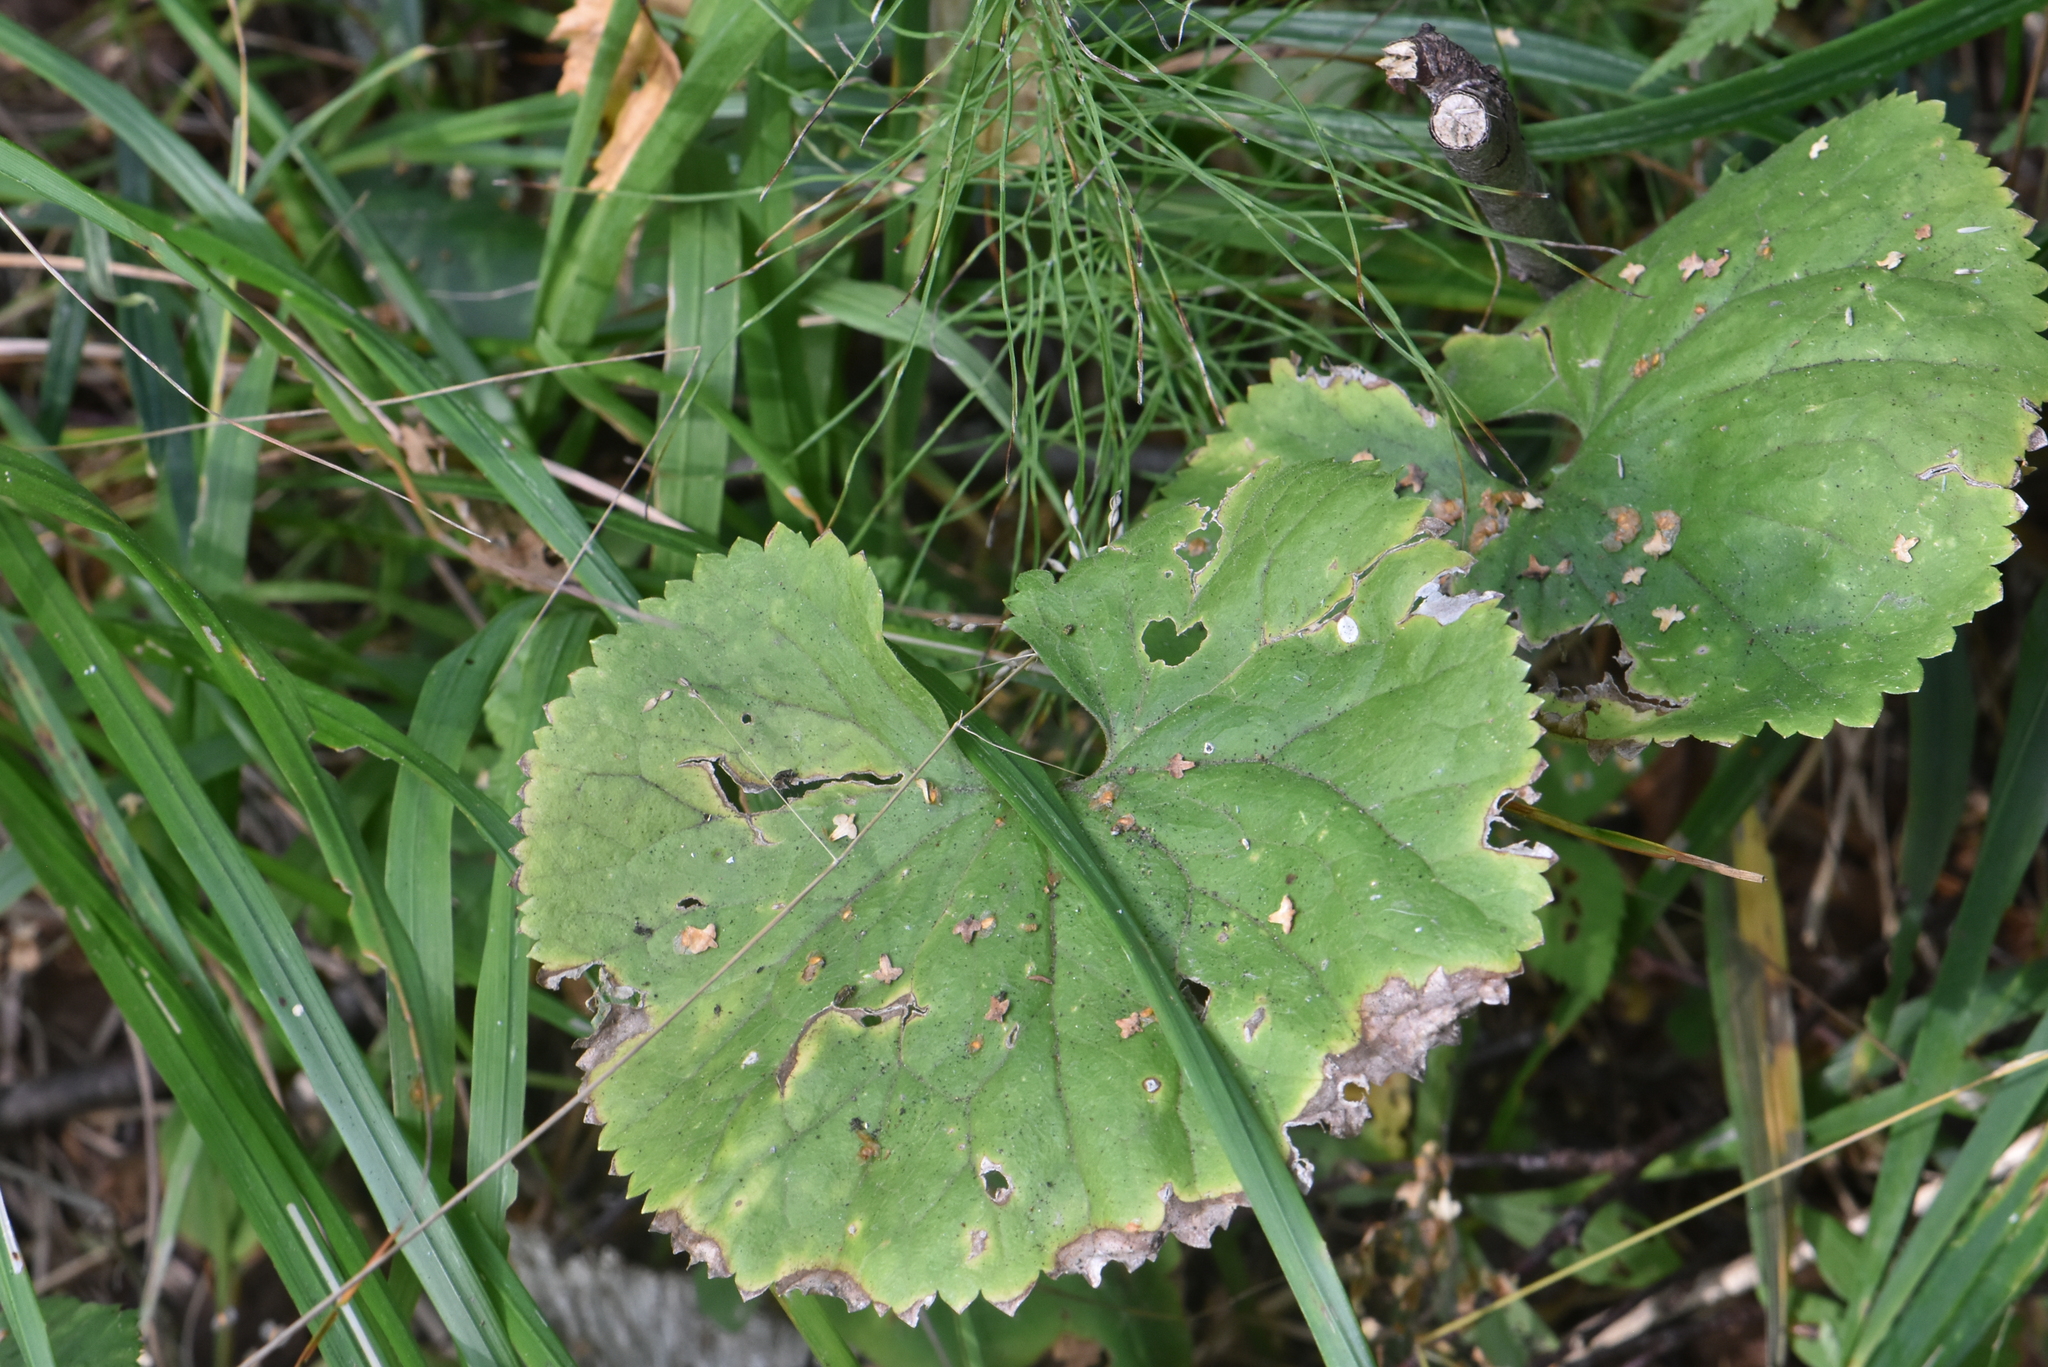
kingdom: Plantae
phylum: Tracheophyta
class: Magnoliopsida
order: Ranunculales
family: Ranunculaceae
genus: Ranunculus
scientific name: Ranunculus cassubicus
